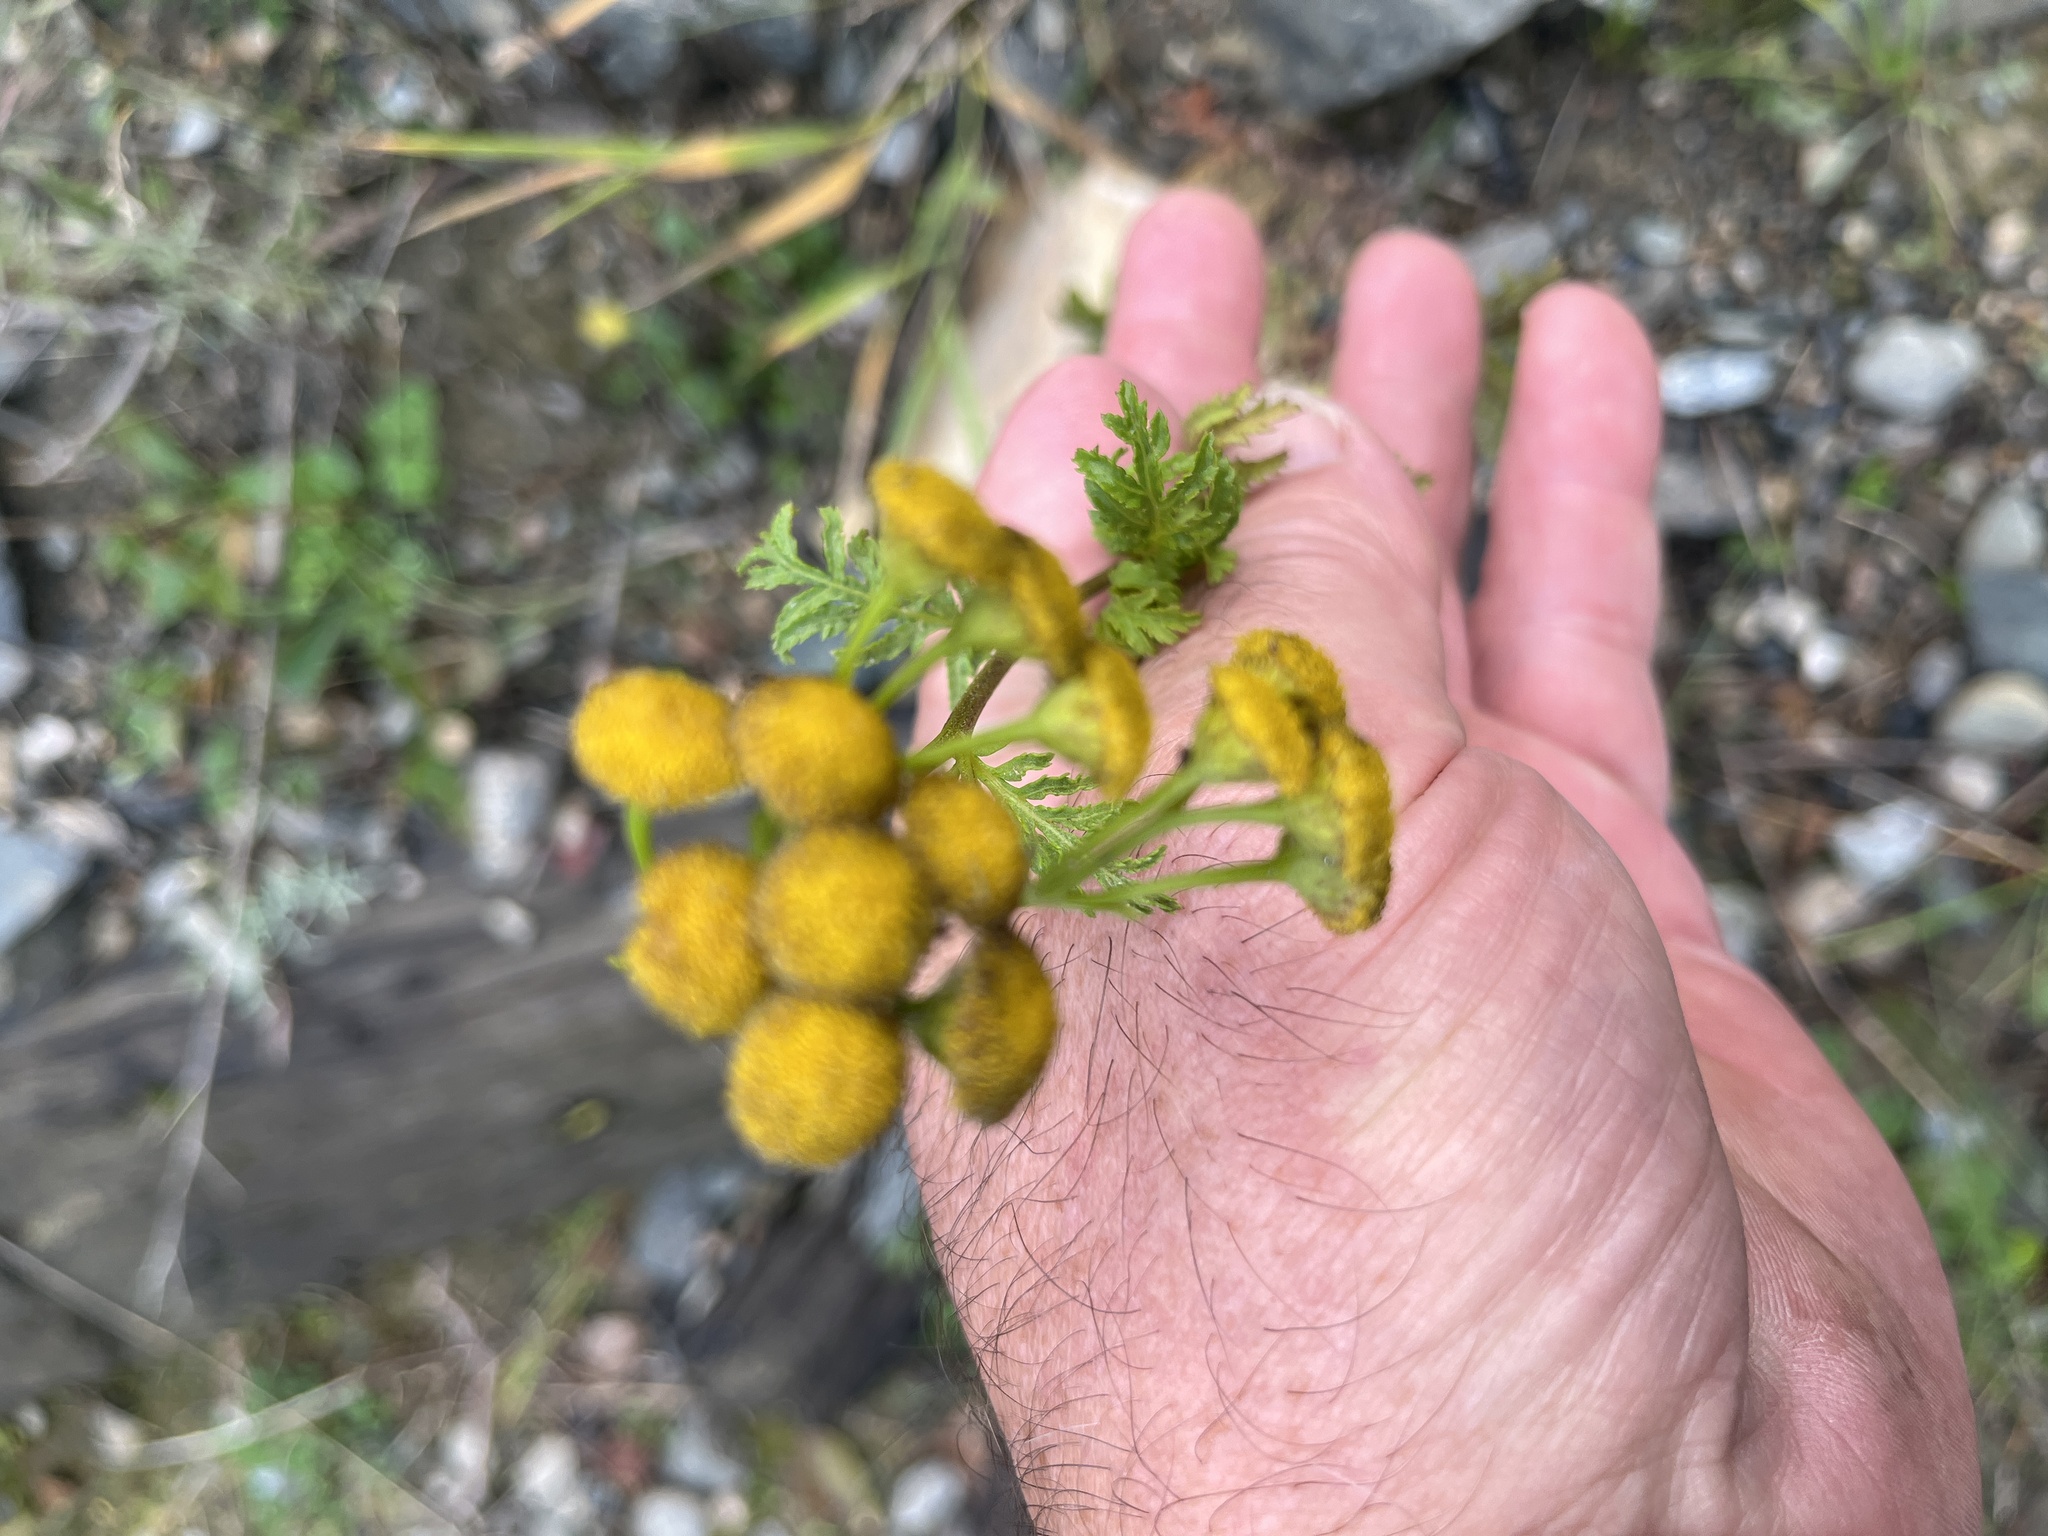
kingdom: Plantae
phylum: Tracheophyta
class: Magnoliopsida
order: Asterales
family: Asteraceae
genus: Tanacetum
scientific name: Tanacetum vulgare
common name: Common tansy
